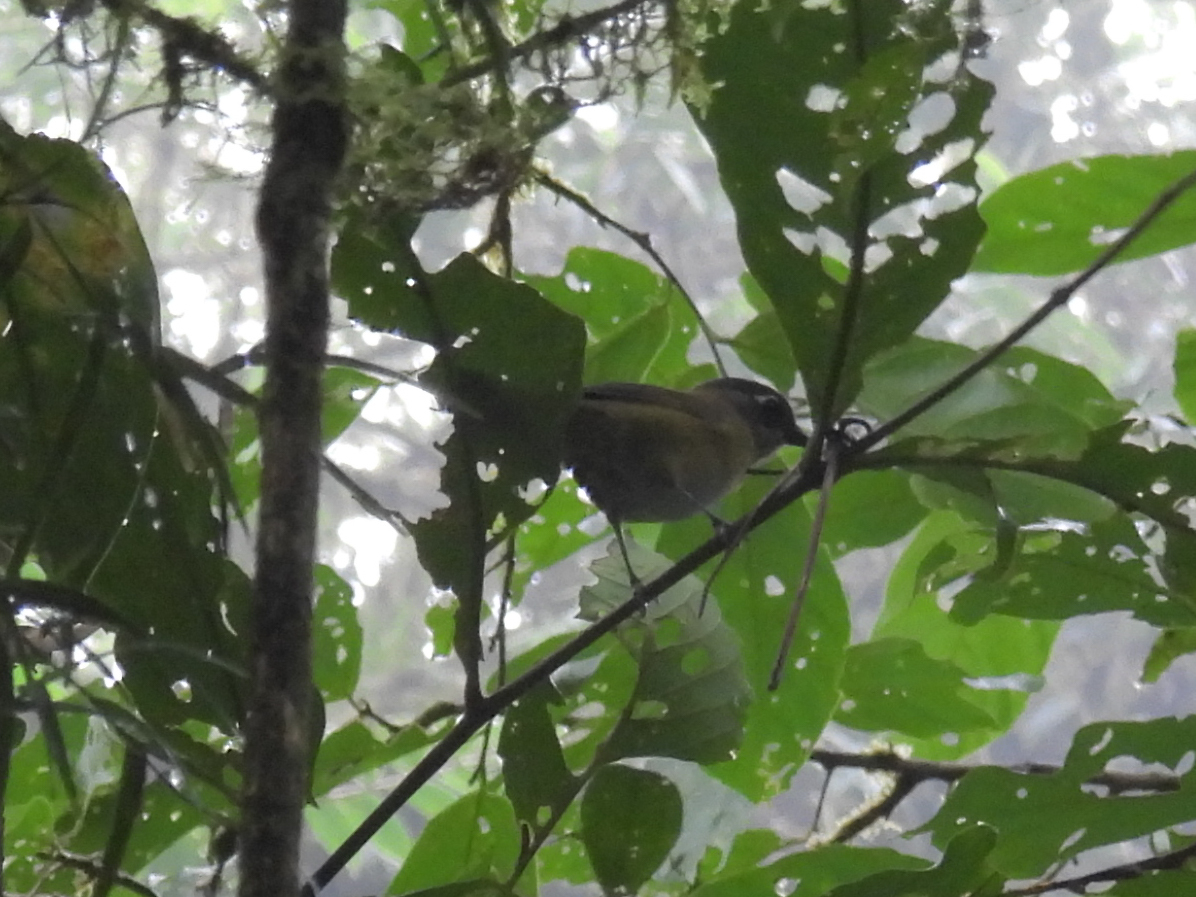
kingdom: Animalia
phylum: Chordata
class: Aves
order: Passeriformes
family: Passerellidae
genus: Chlorospingus
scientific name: Chlorospingus flavopectus
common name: Common chlorospingus
